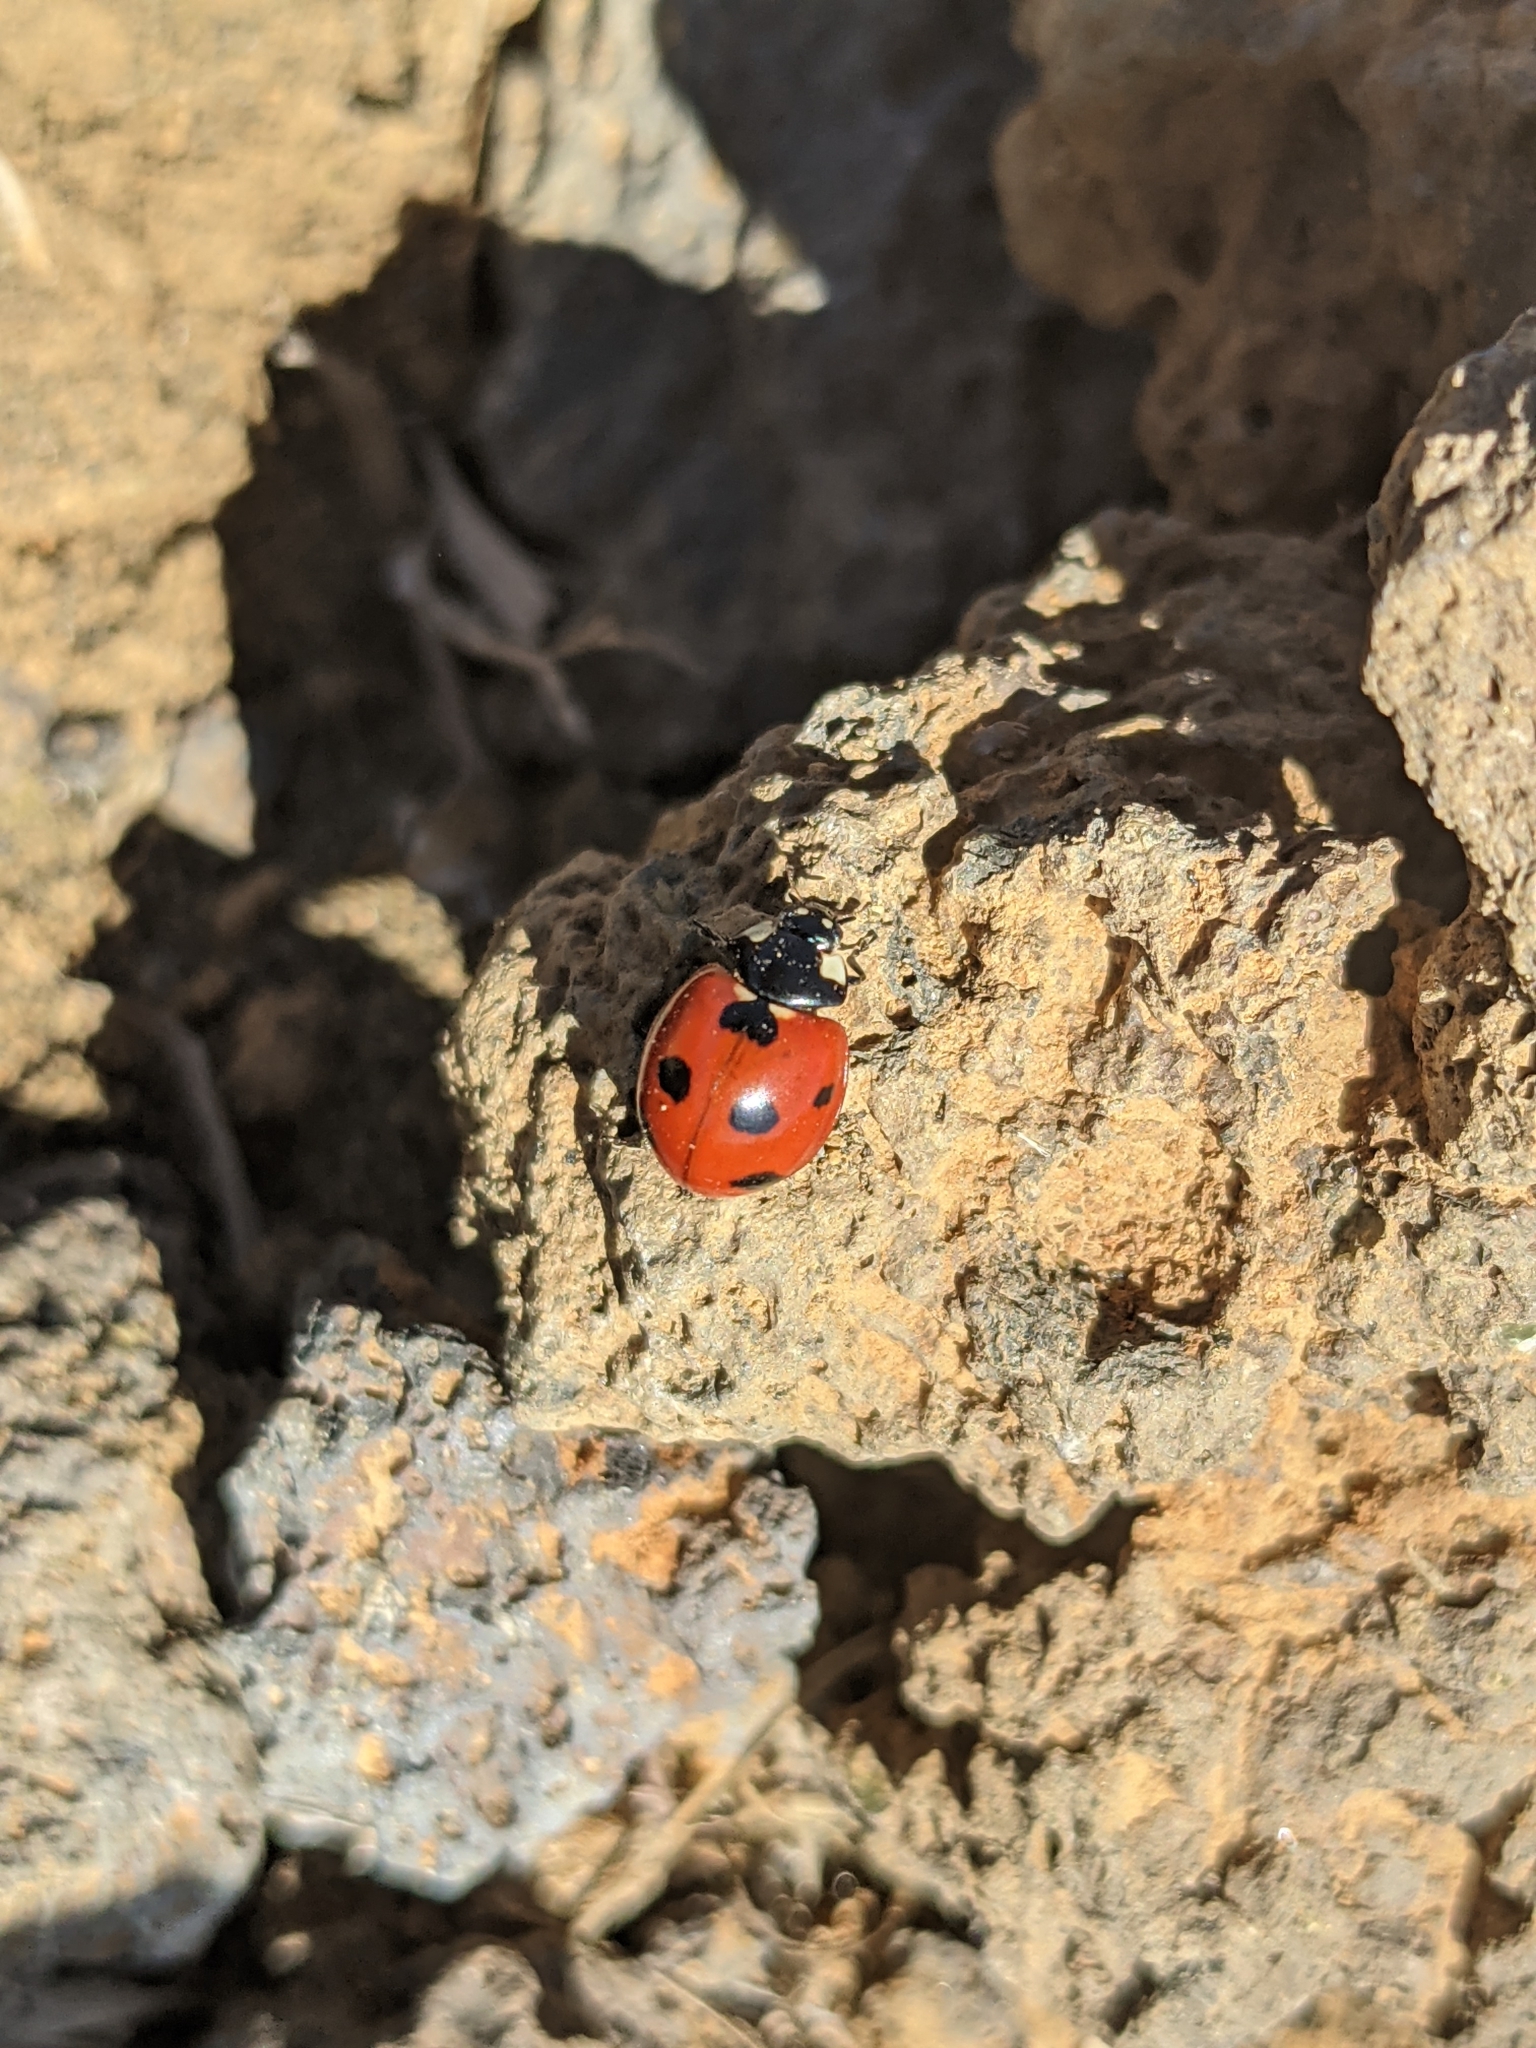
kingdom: Animalia
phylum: Arthropoda
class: Insecta
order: Coleoptera
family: Coccinellidae
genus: Coccinella
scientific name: Coccinella septempunctata
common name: Sevenspotted lady beetle
